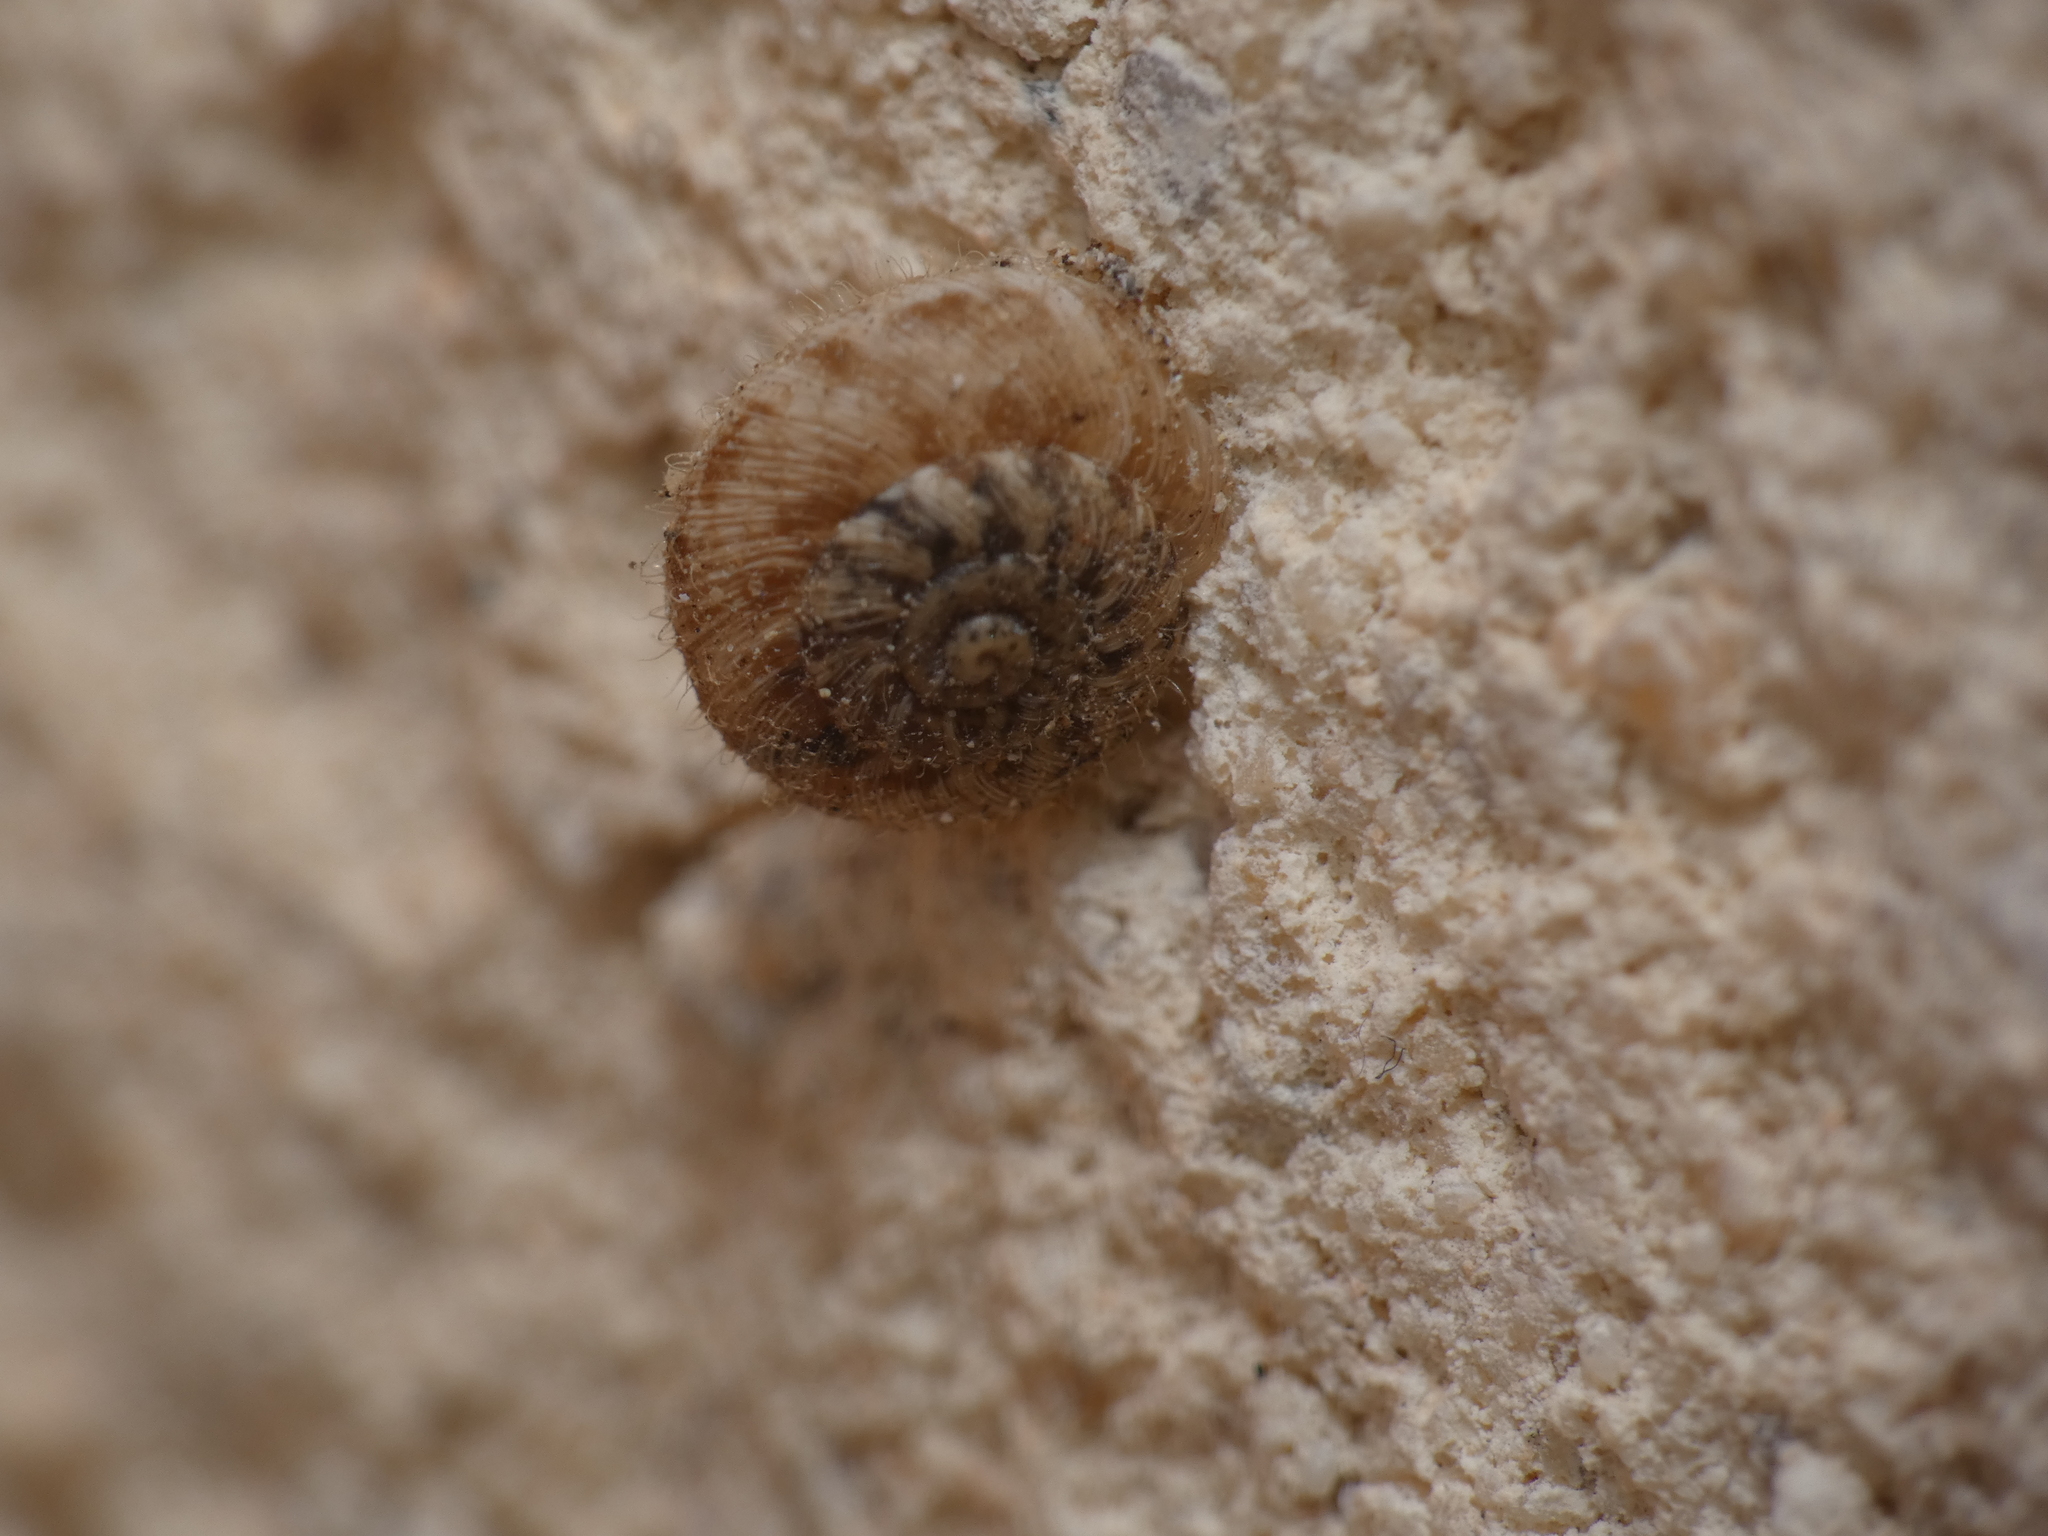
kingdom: Animalia
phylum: Mollusca
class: Gastropoda
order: Stylommatophora
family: Geomitridae
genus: Xerotricha
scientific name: Xerotricha conspurcata
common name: Snail
